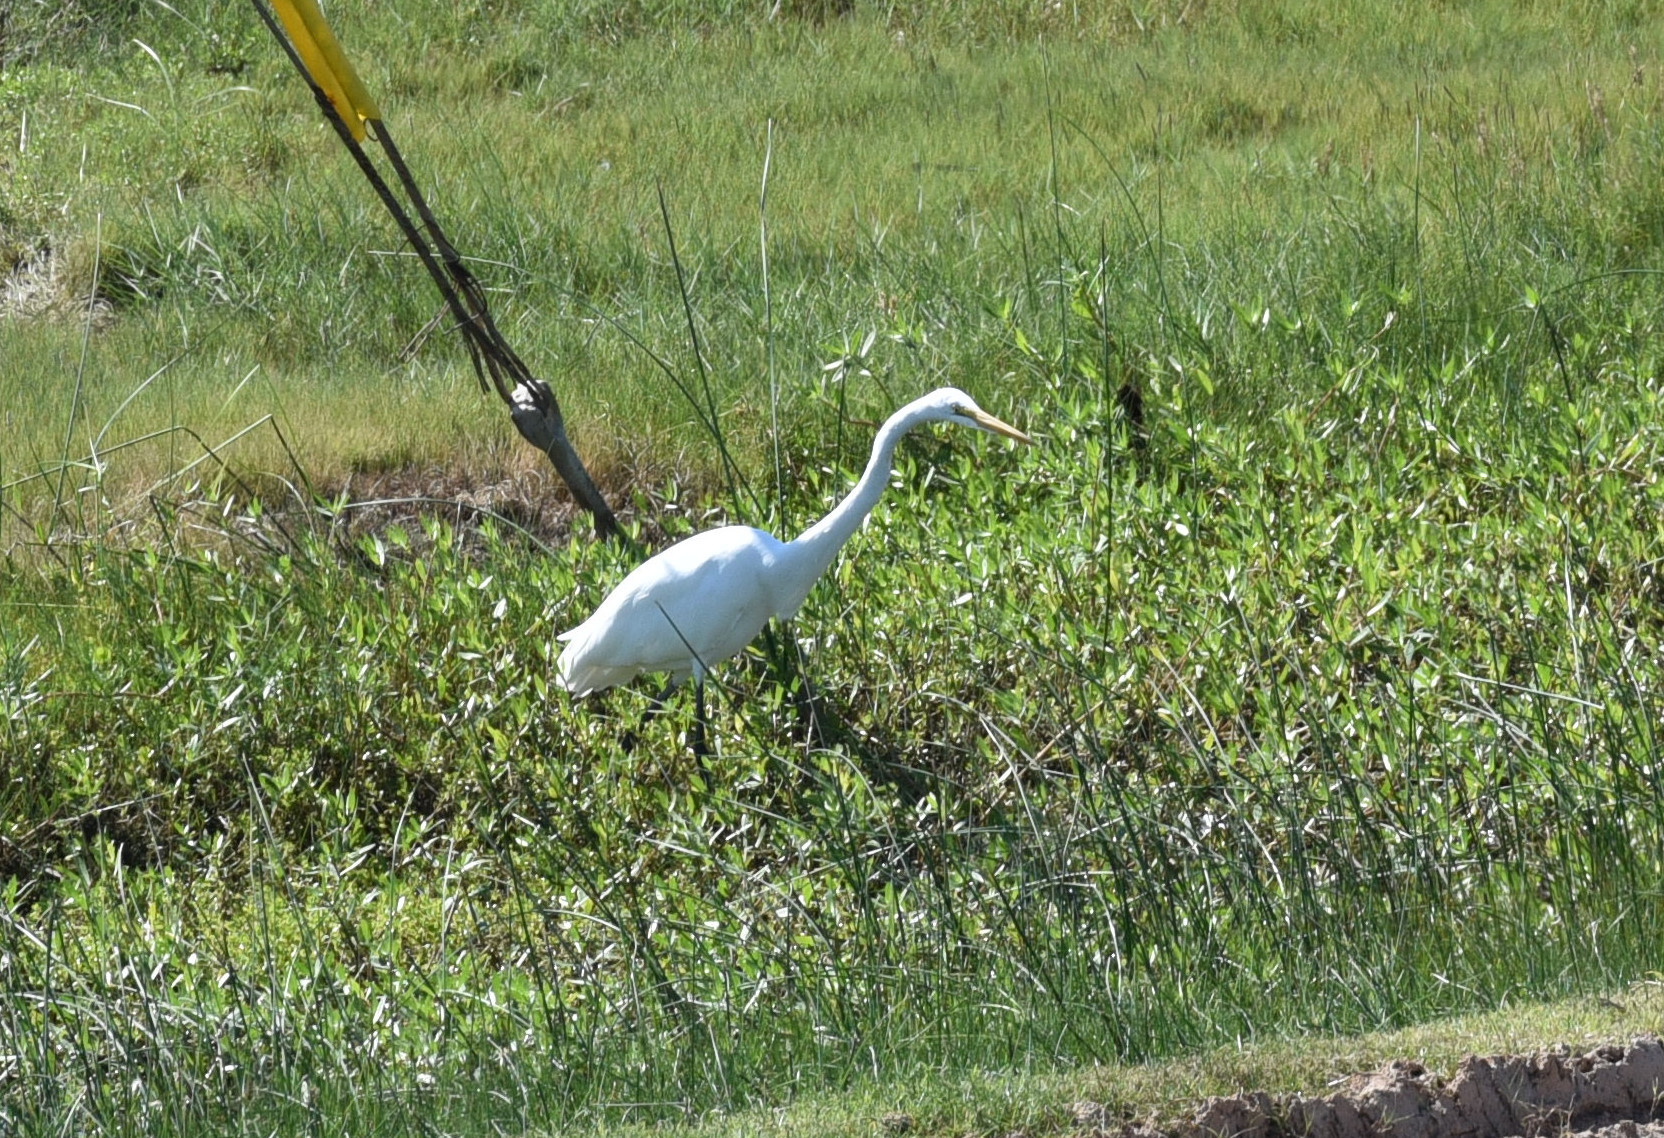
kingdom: Animalia
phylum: Chordata
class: Aves
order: Pelecaniformes
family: Ardeidae
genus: Ardea
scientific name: Ardea alba
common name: Great egret
